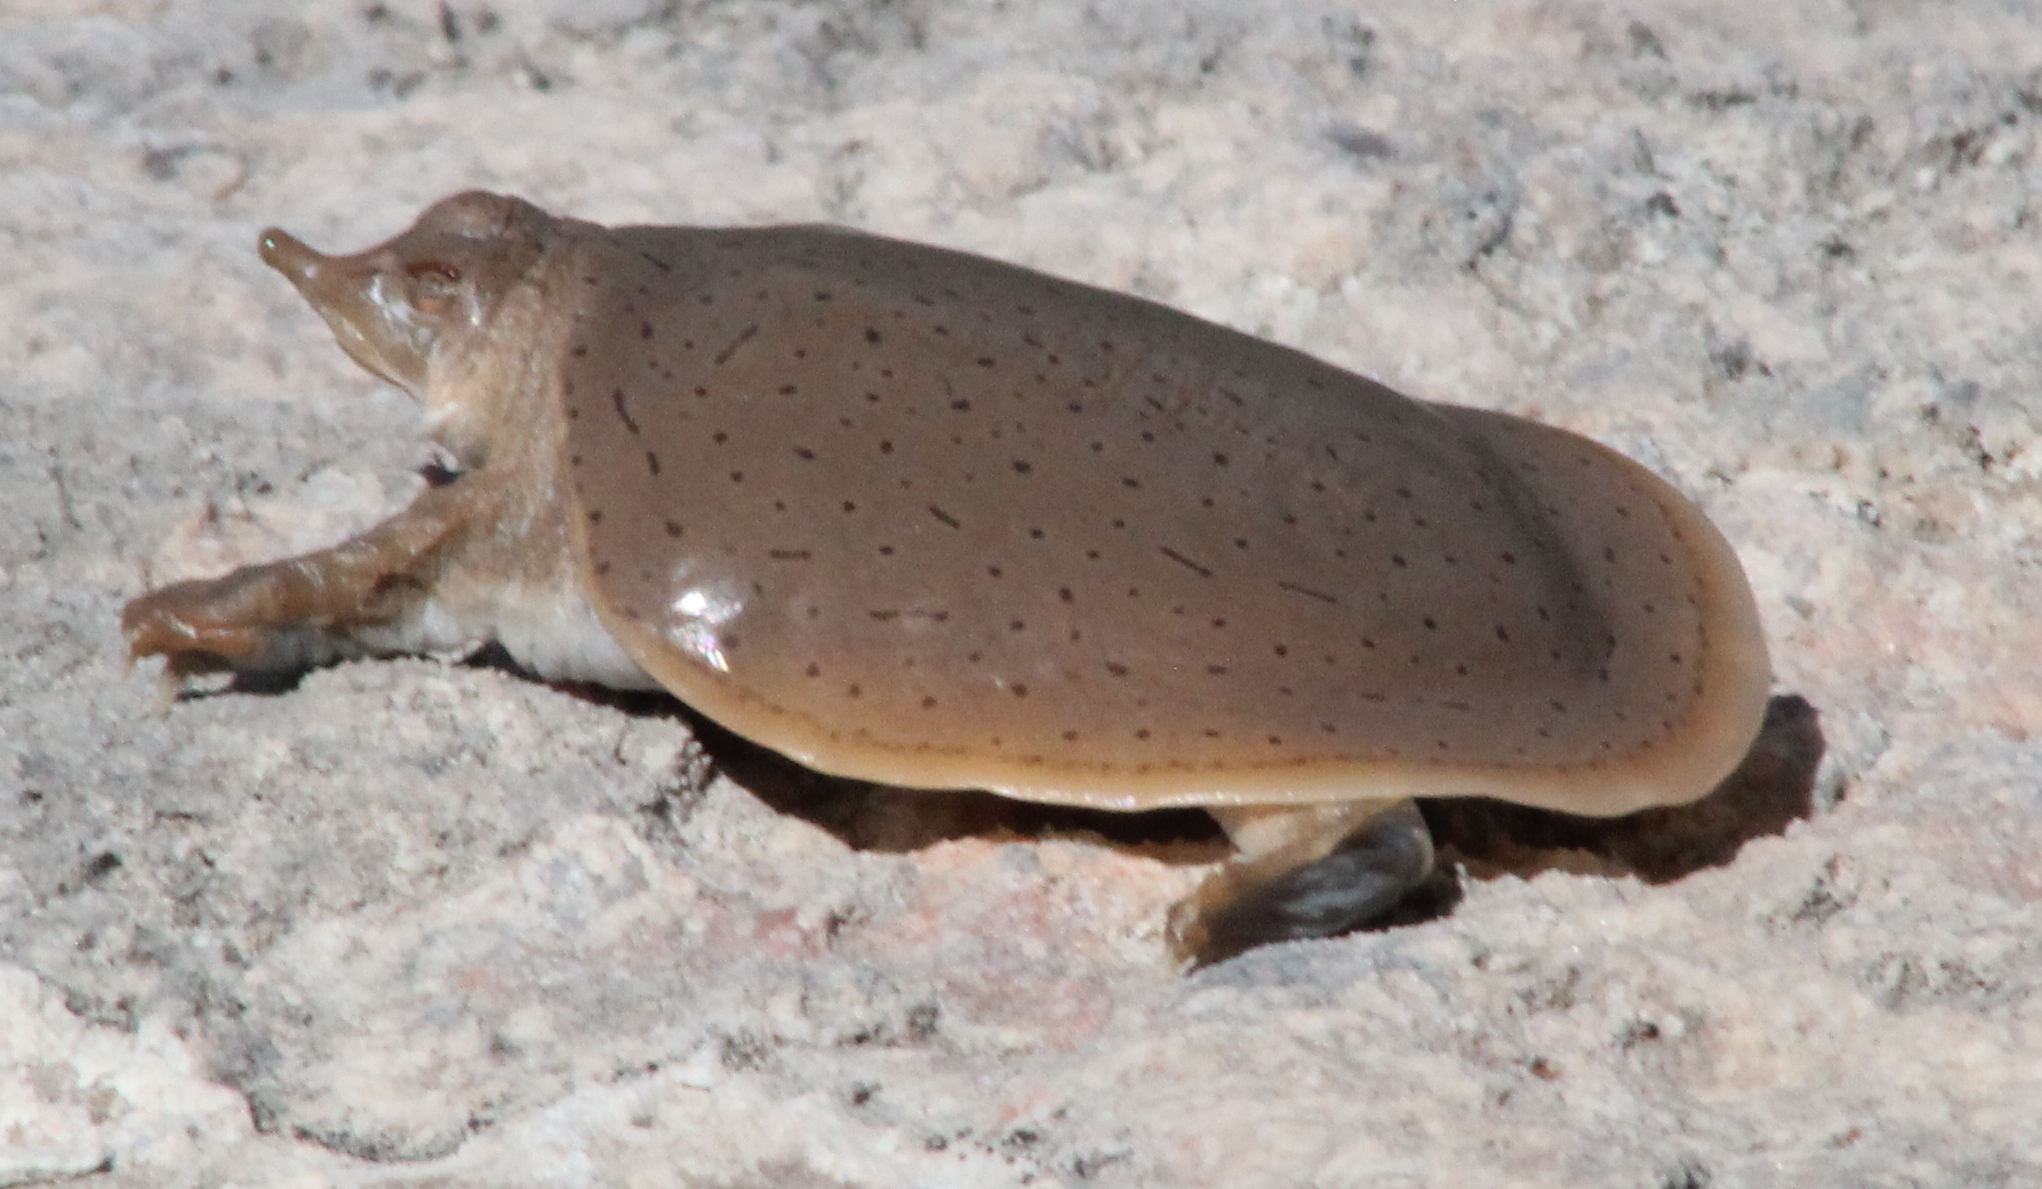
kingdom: Animalia
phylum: Chordata
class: Testudines
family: Trionychidae
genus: Apalone
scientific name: Apalone mutica
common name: Smooth softshell turtle
